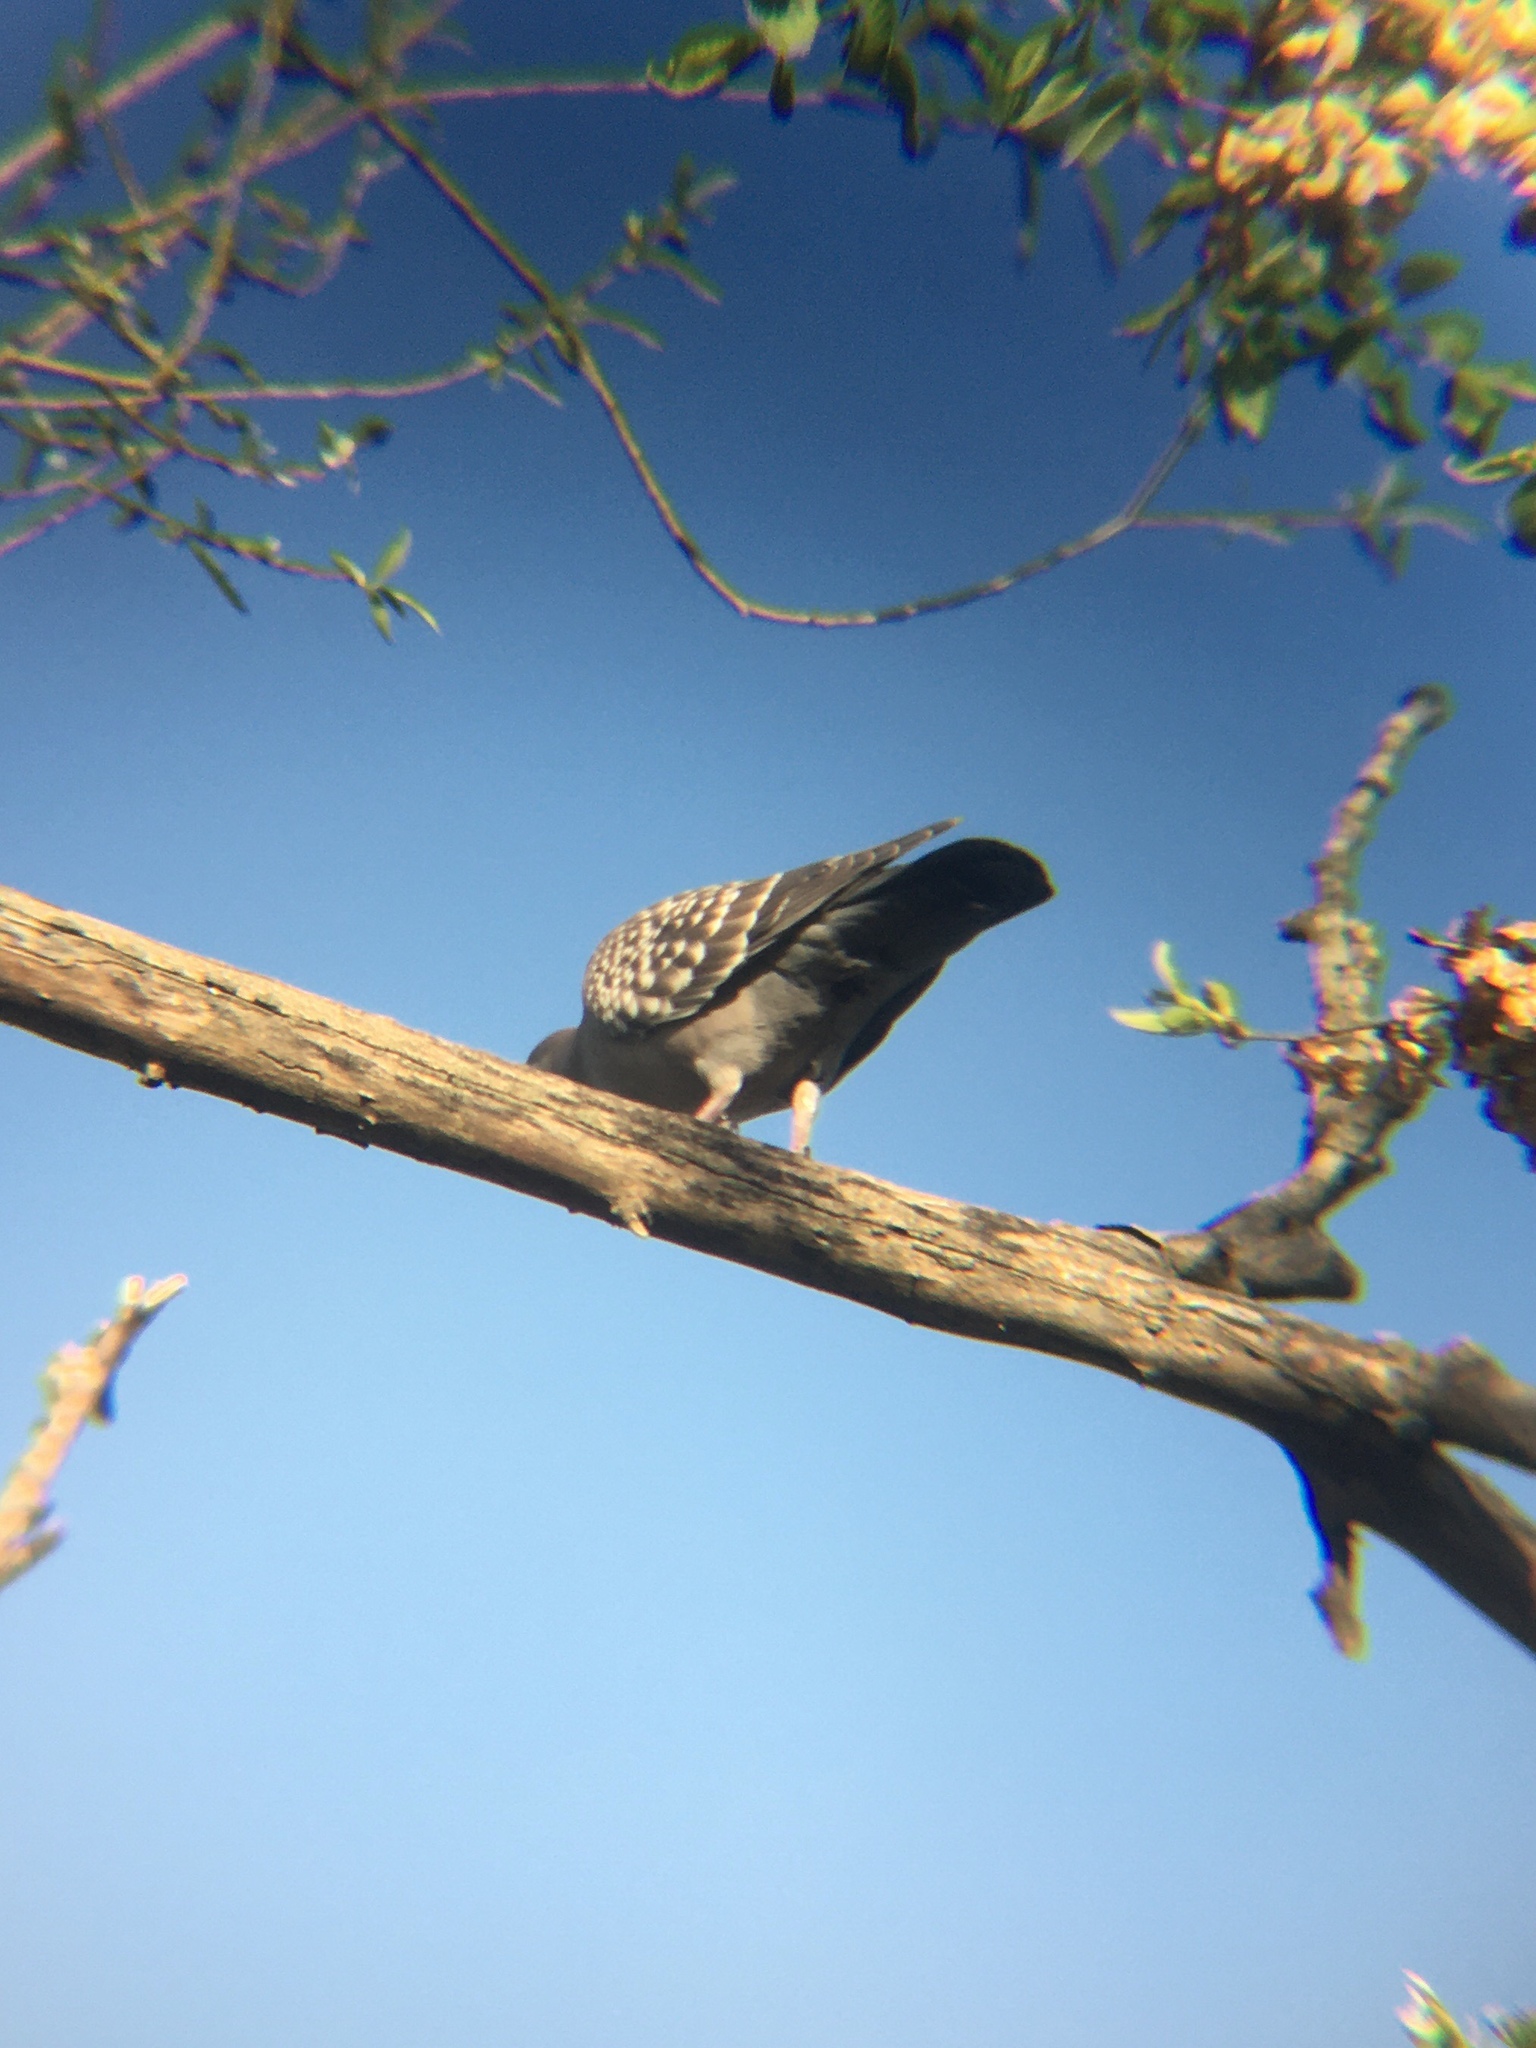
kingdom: Animalia
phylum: Chordata
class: Aves
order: Columbiformes
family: Columbidae
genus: Patagioenas
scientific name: Patagioenas maculosa
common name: Spot-winged pigeon
